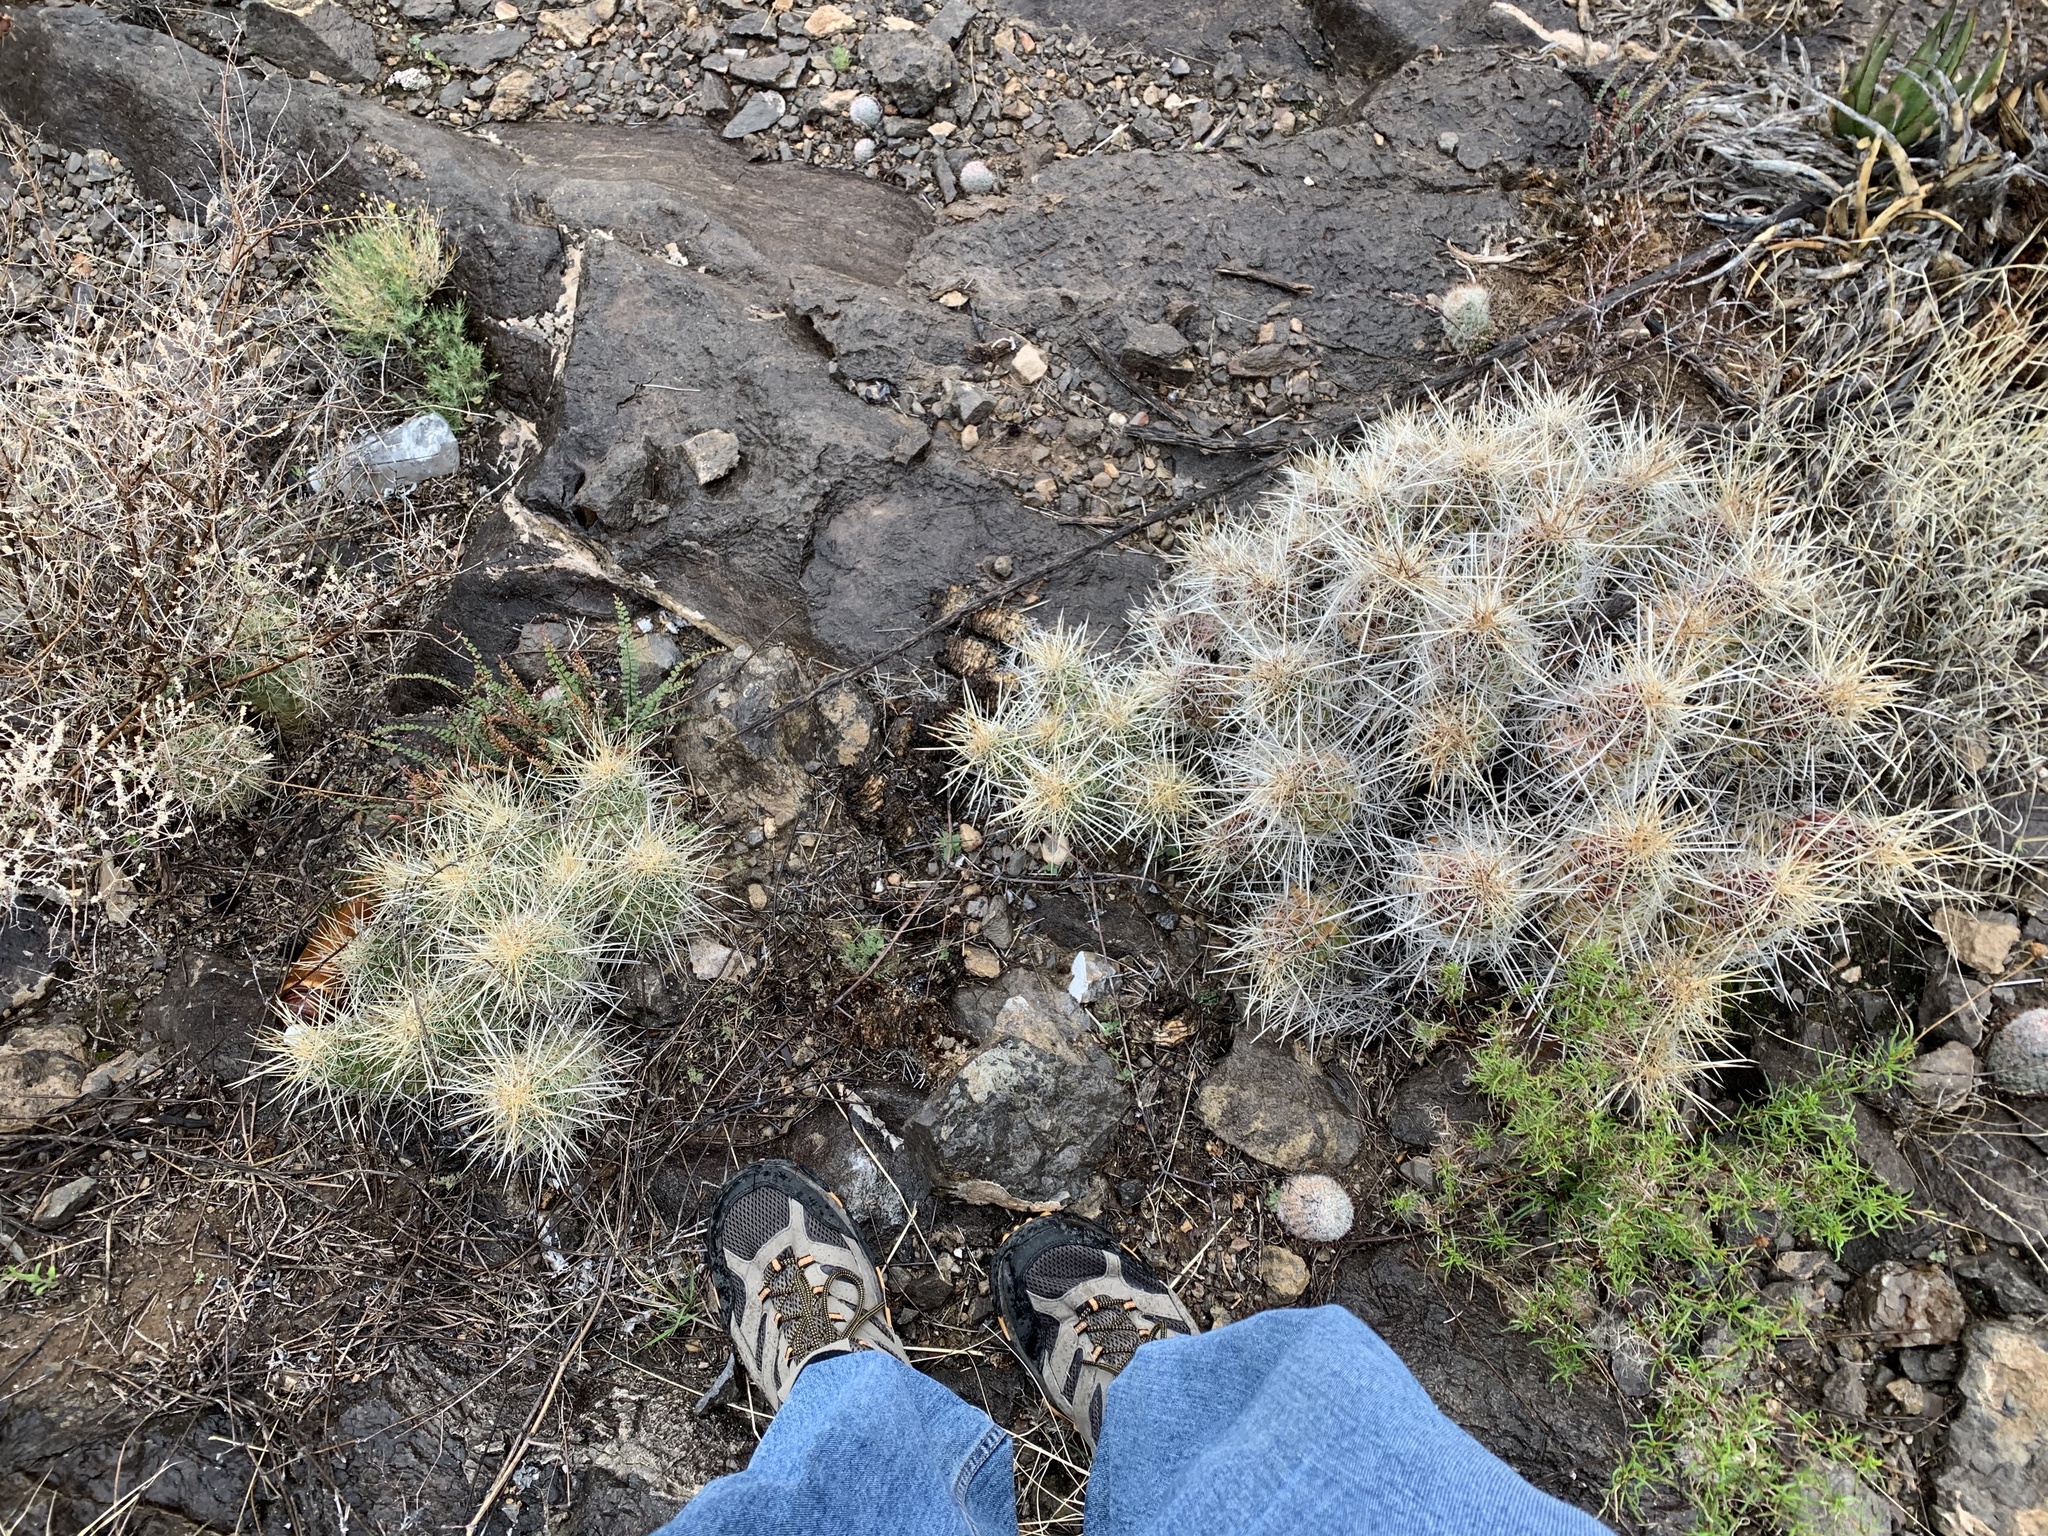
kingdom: Plantae
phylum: Tracheophyta
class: Magnoliopsida
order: Caryophyllales
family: Cactaceae
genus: Echinocereus
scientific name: Echinocereus stramineus
